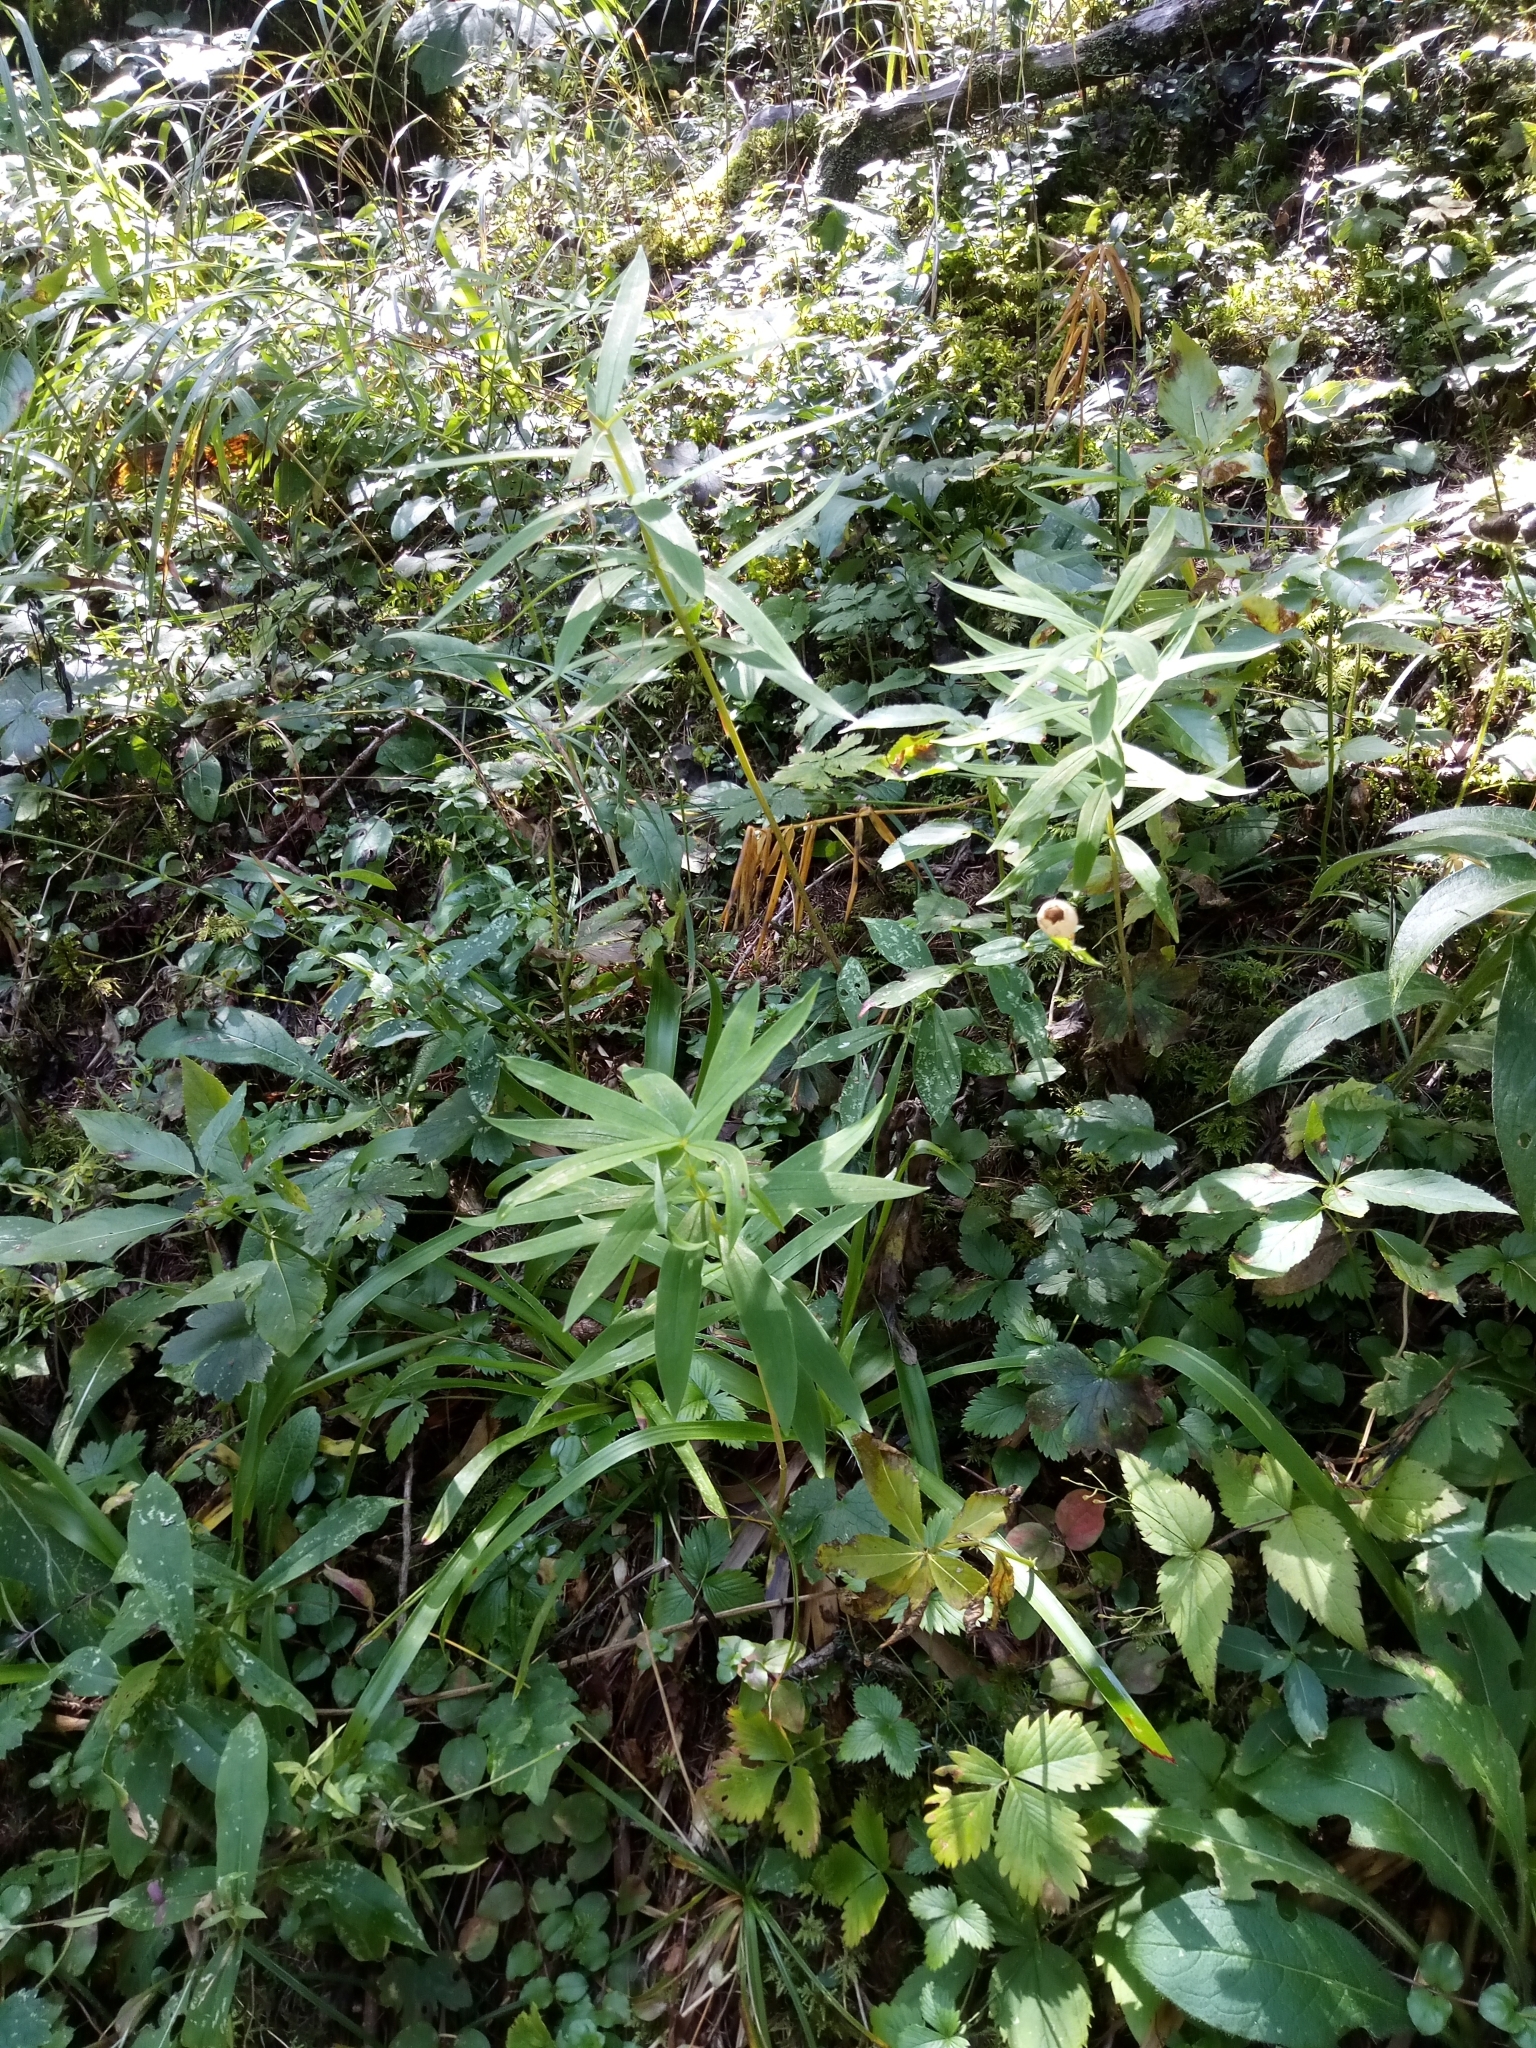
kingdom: Plantae
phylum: Tracheophyta
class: Liliopsida
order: Asparagales
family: Asparagaceae
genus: Polygonatum
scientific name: Polygonatum verticillatum
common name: Whorled solomon's-seal
